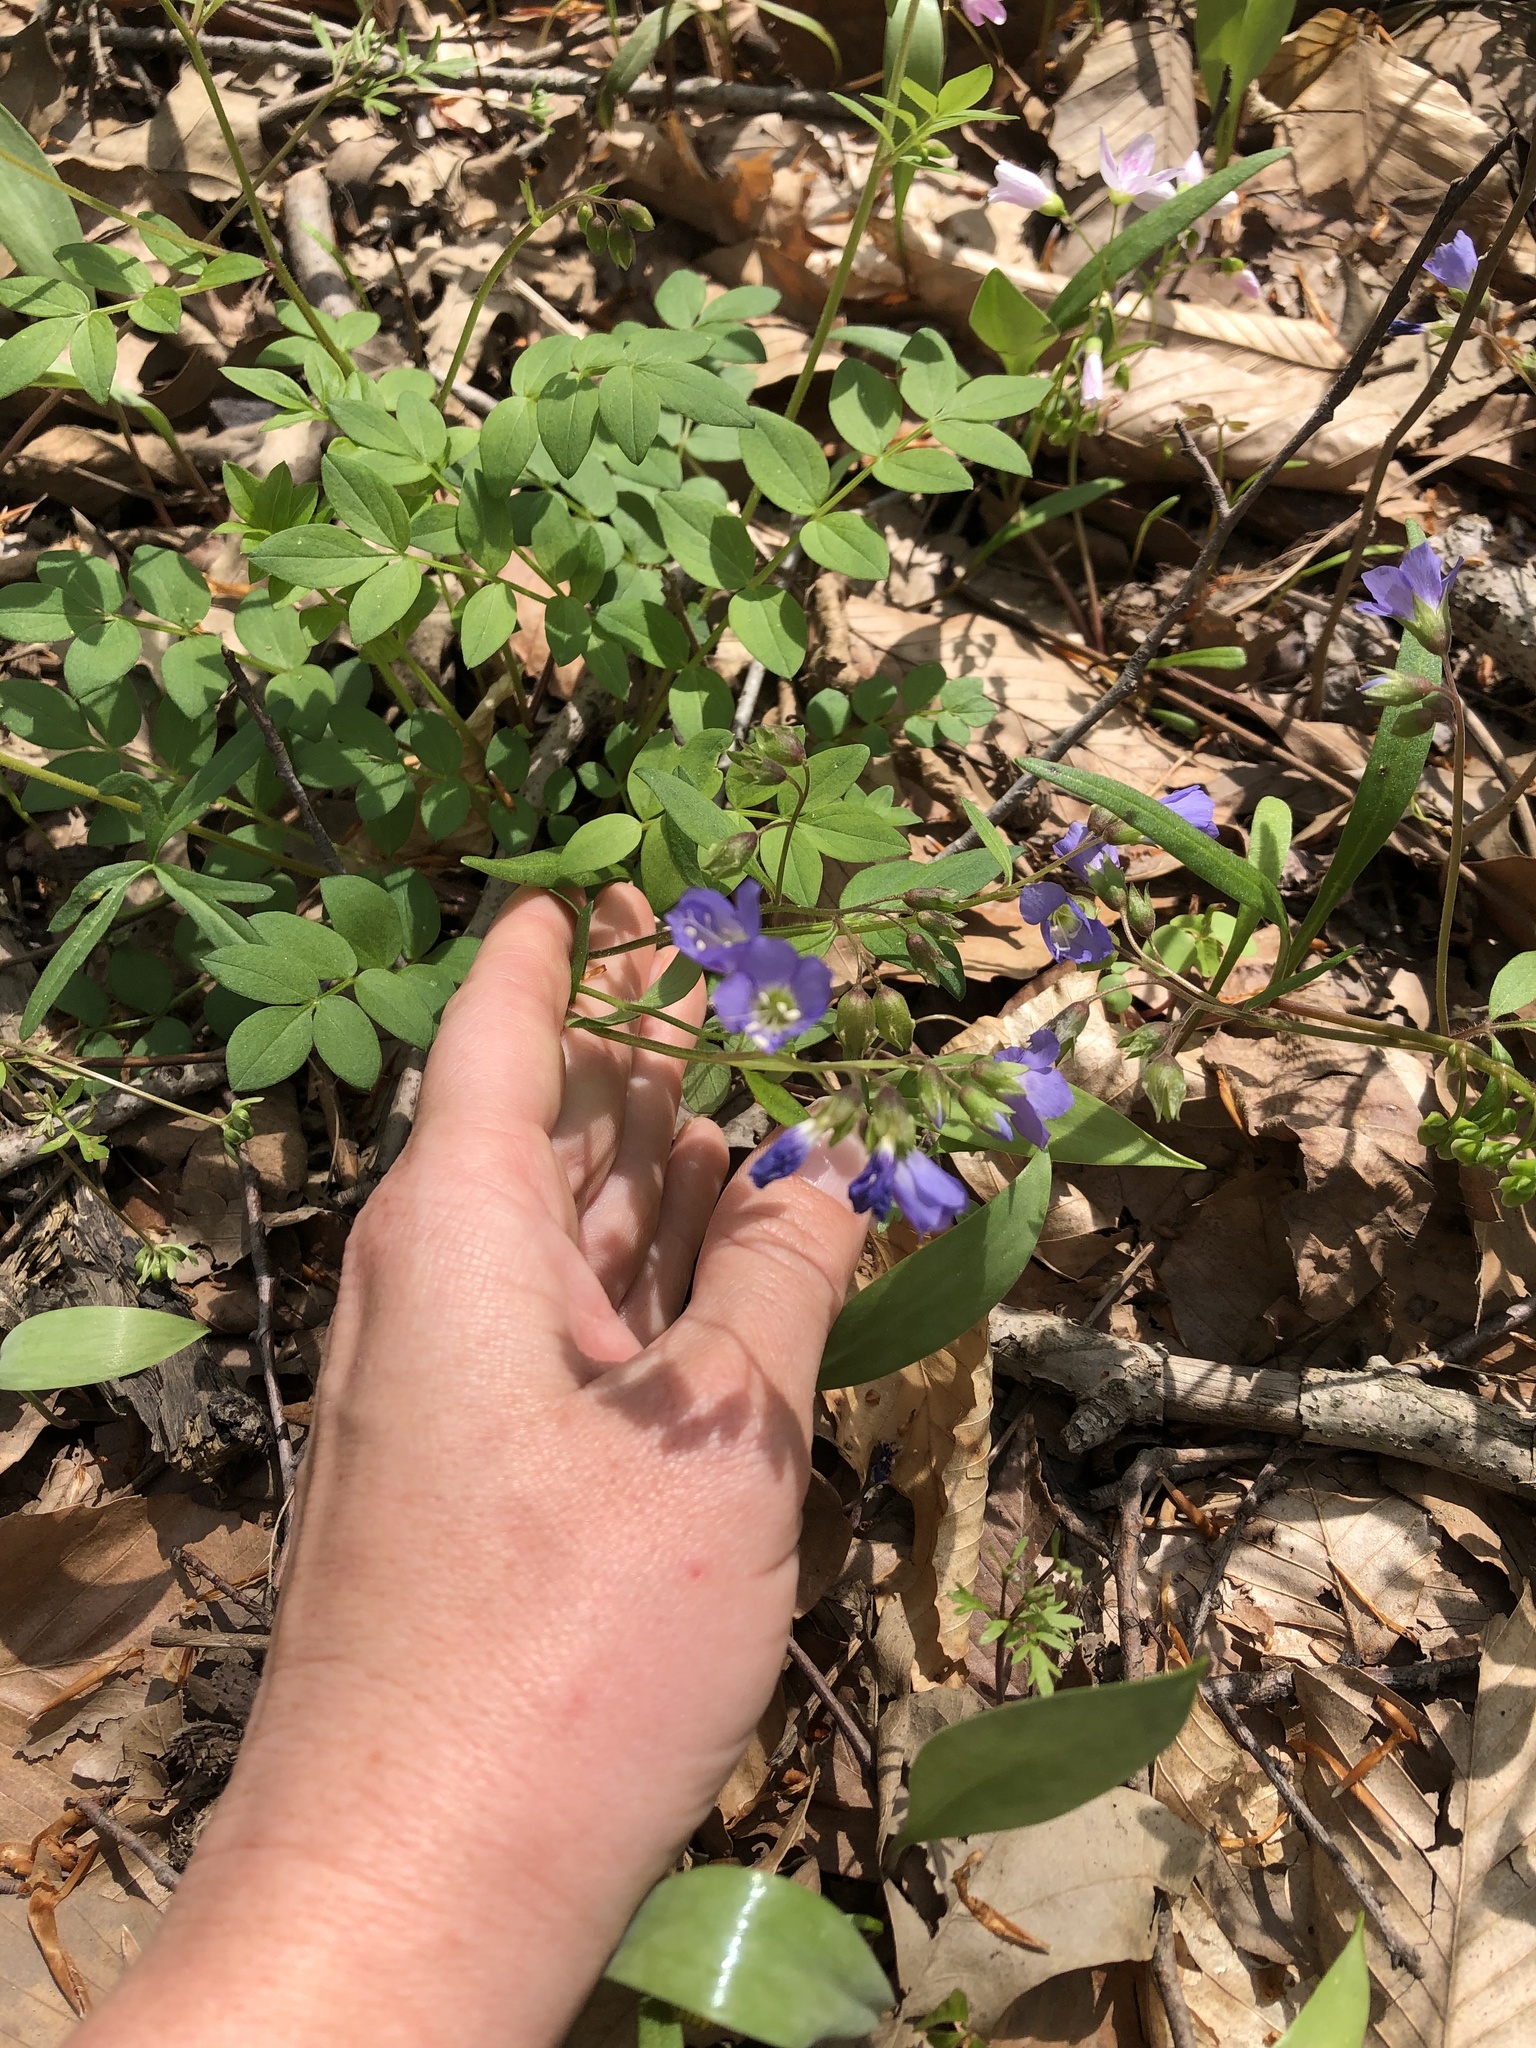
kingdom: Plantae
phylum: Tracheophyta
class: Magnoliopsida
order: Ericales
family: Polemoniaceae
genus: Polemonium
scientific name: Polemonium reptans
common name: Creeping jacob's-ladder
